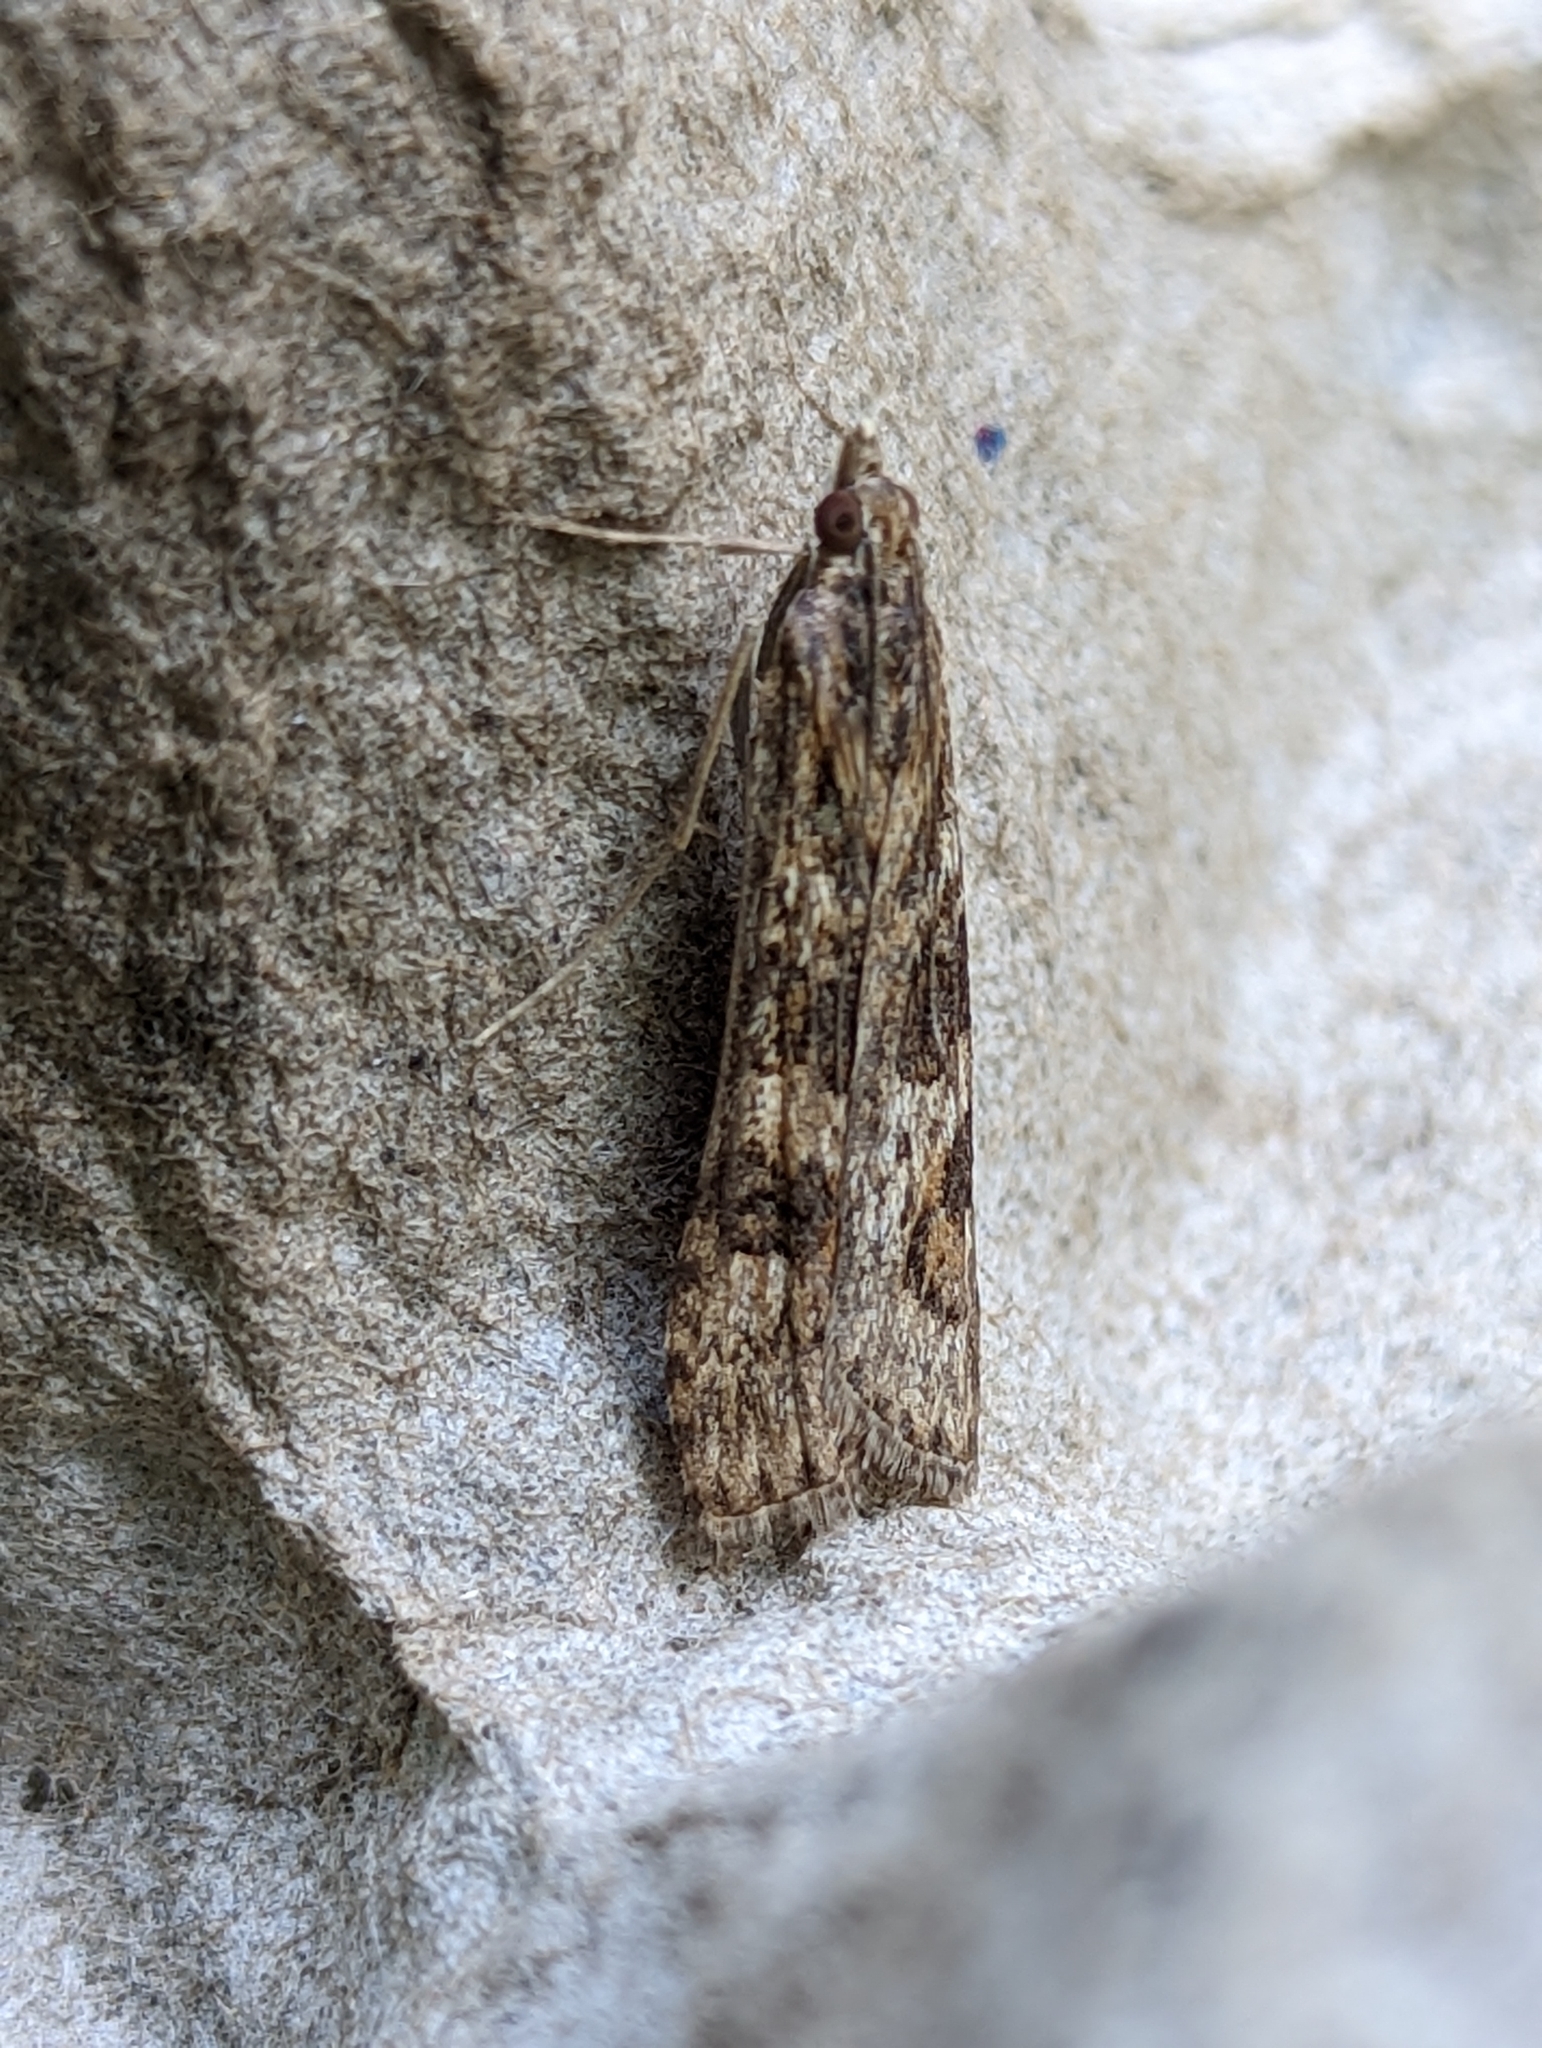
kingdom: Animalia
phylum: Arthropoda
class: Insecta
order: Lepidoptera
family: Crambidae
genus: Nomophila
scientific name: Nomophila noctuella
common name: Rush veneer
